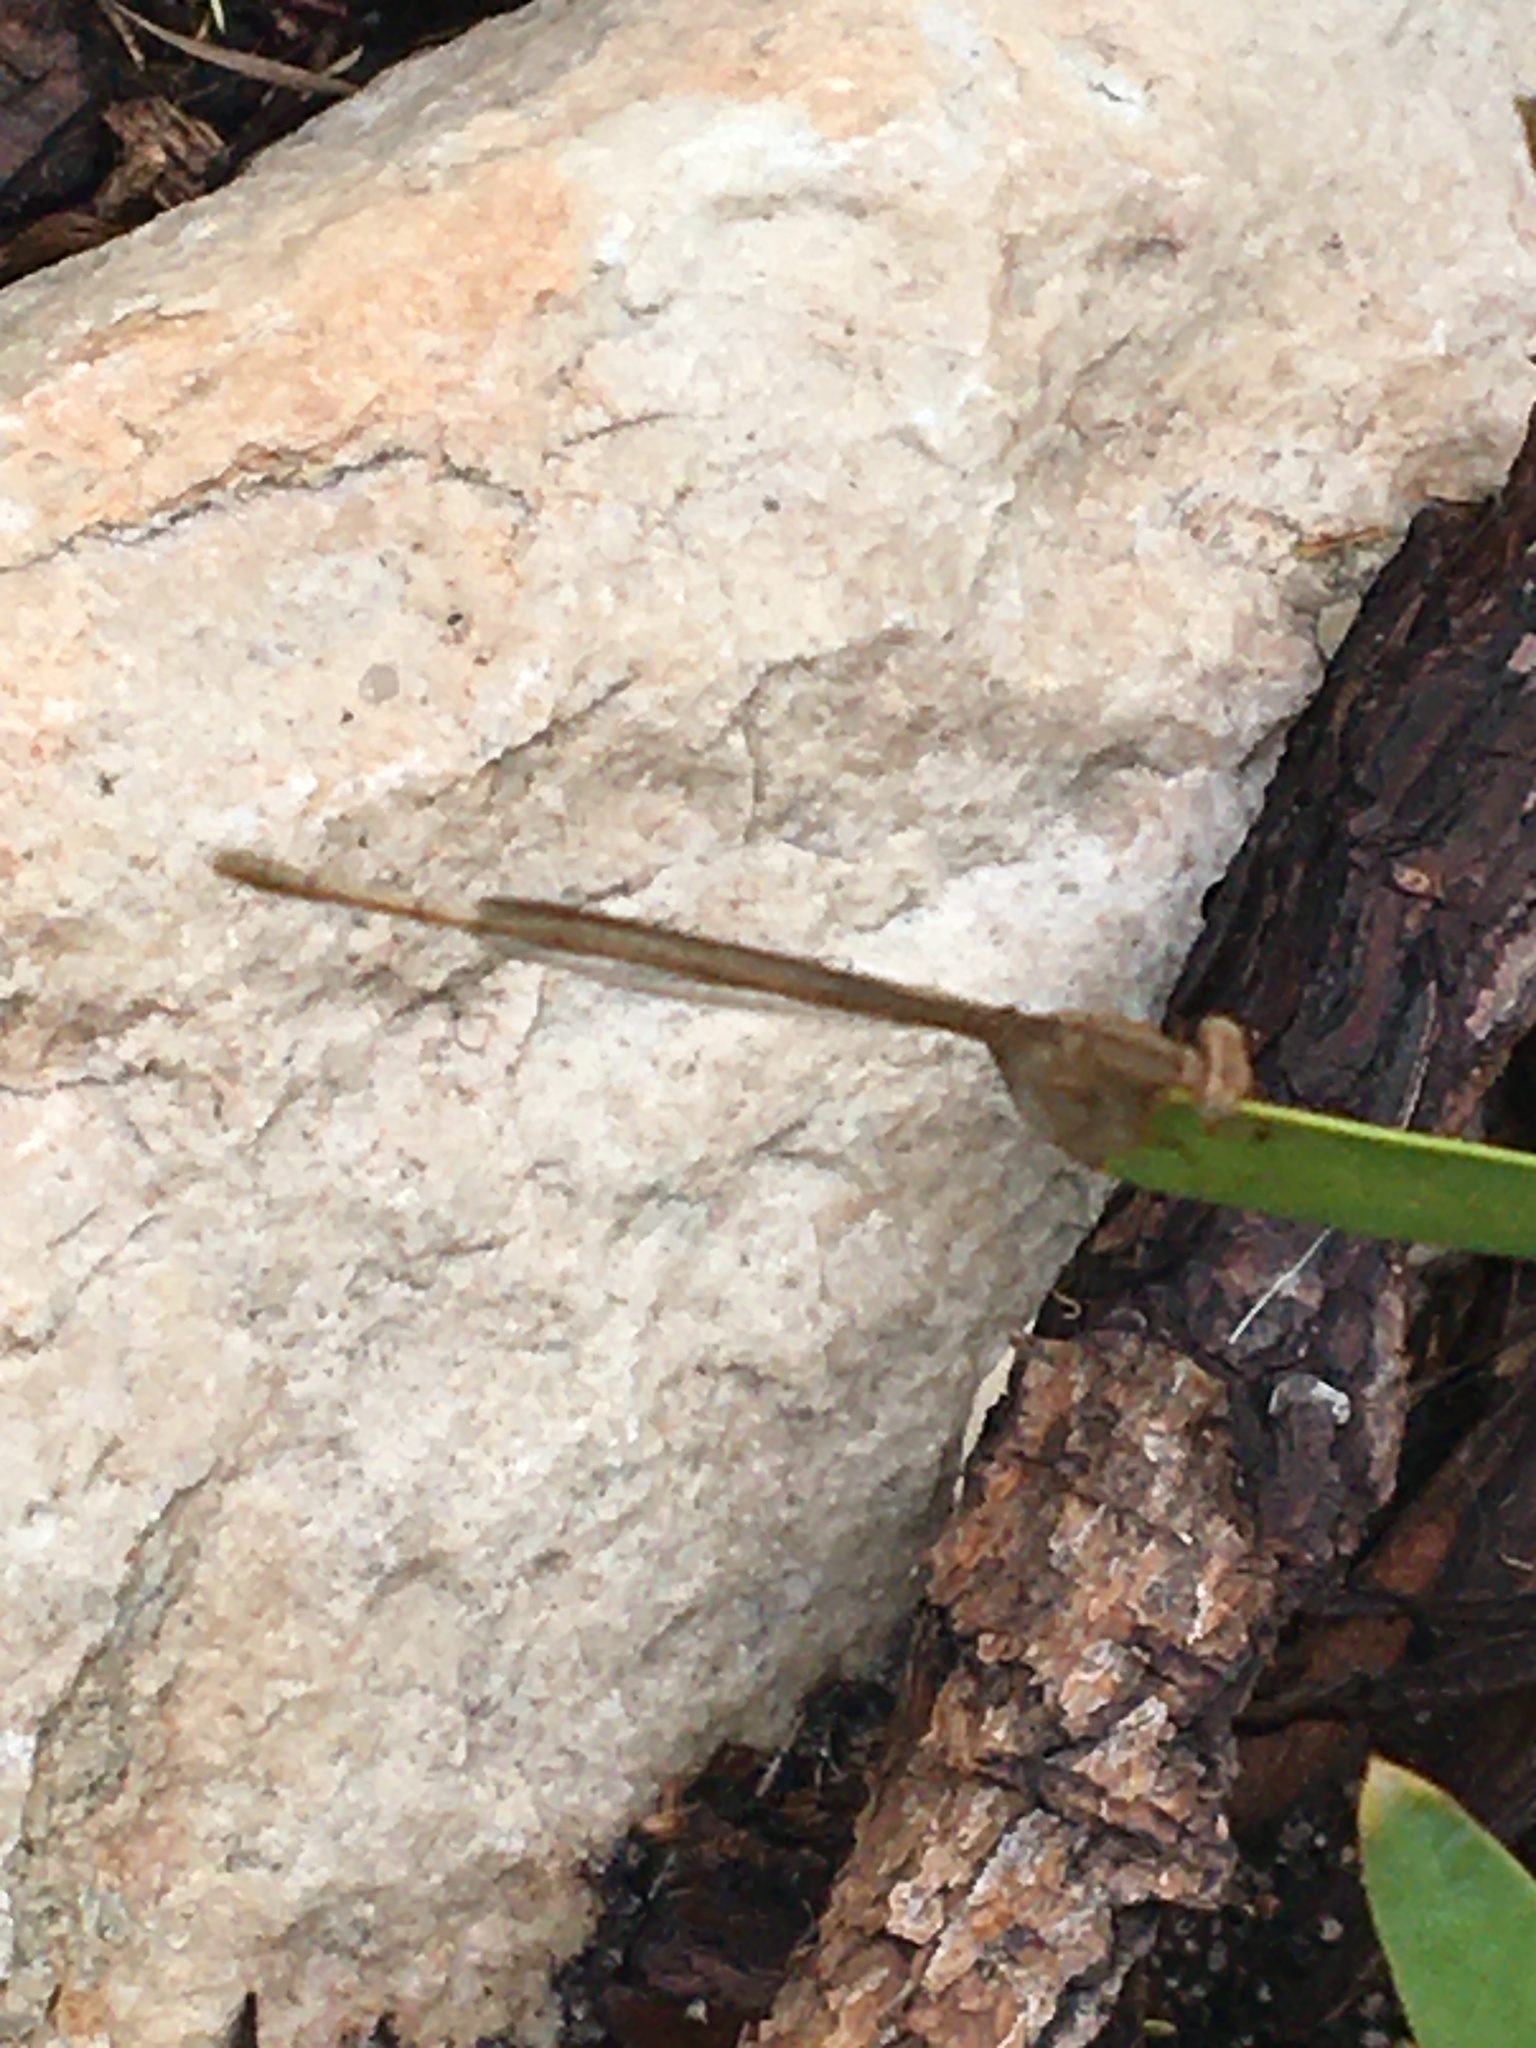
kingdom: Animalia
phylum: Arthropoda
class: Insecta
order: Odonata
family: Coenagrionidae
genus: Ceriagrion
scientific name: Ceriagrion glabrum
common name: Common pond damsel
